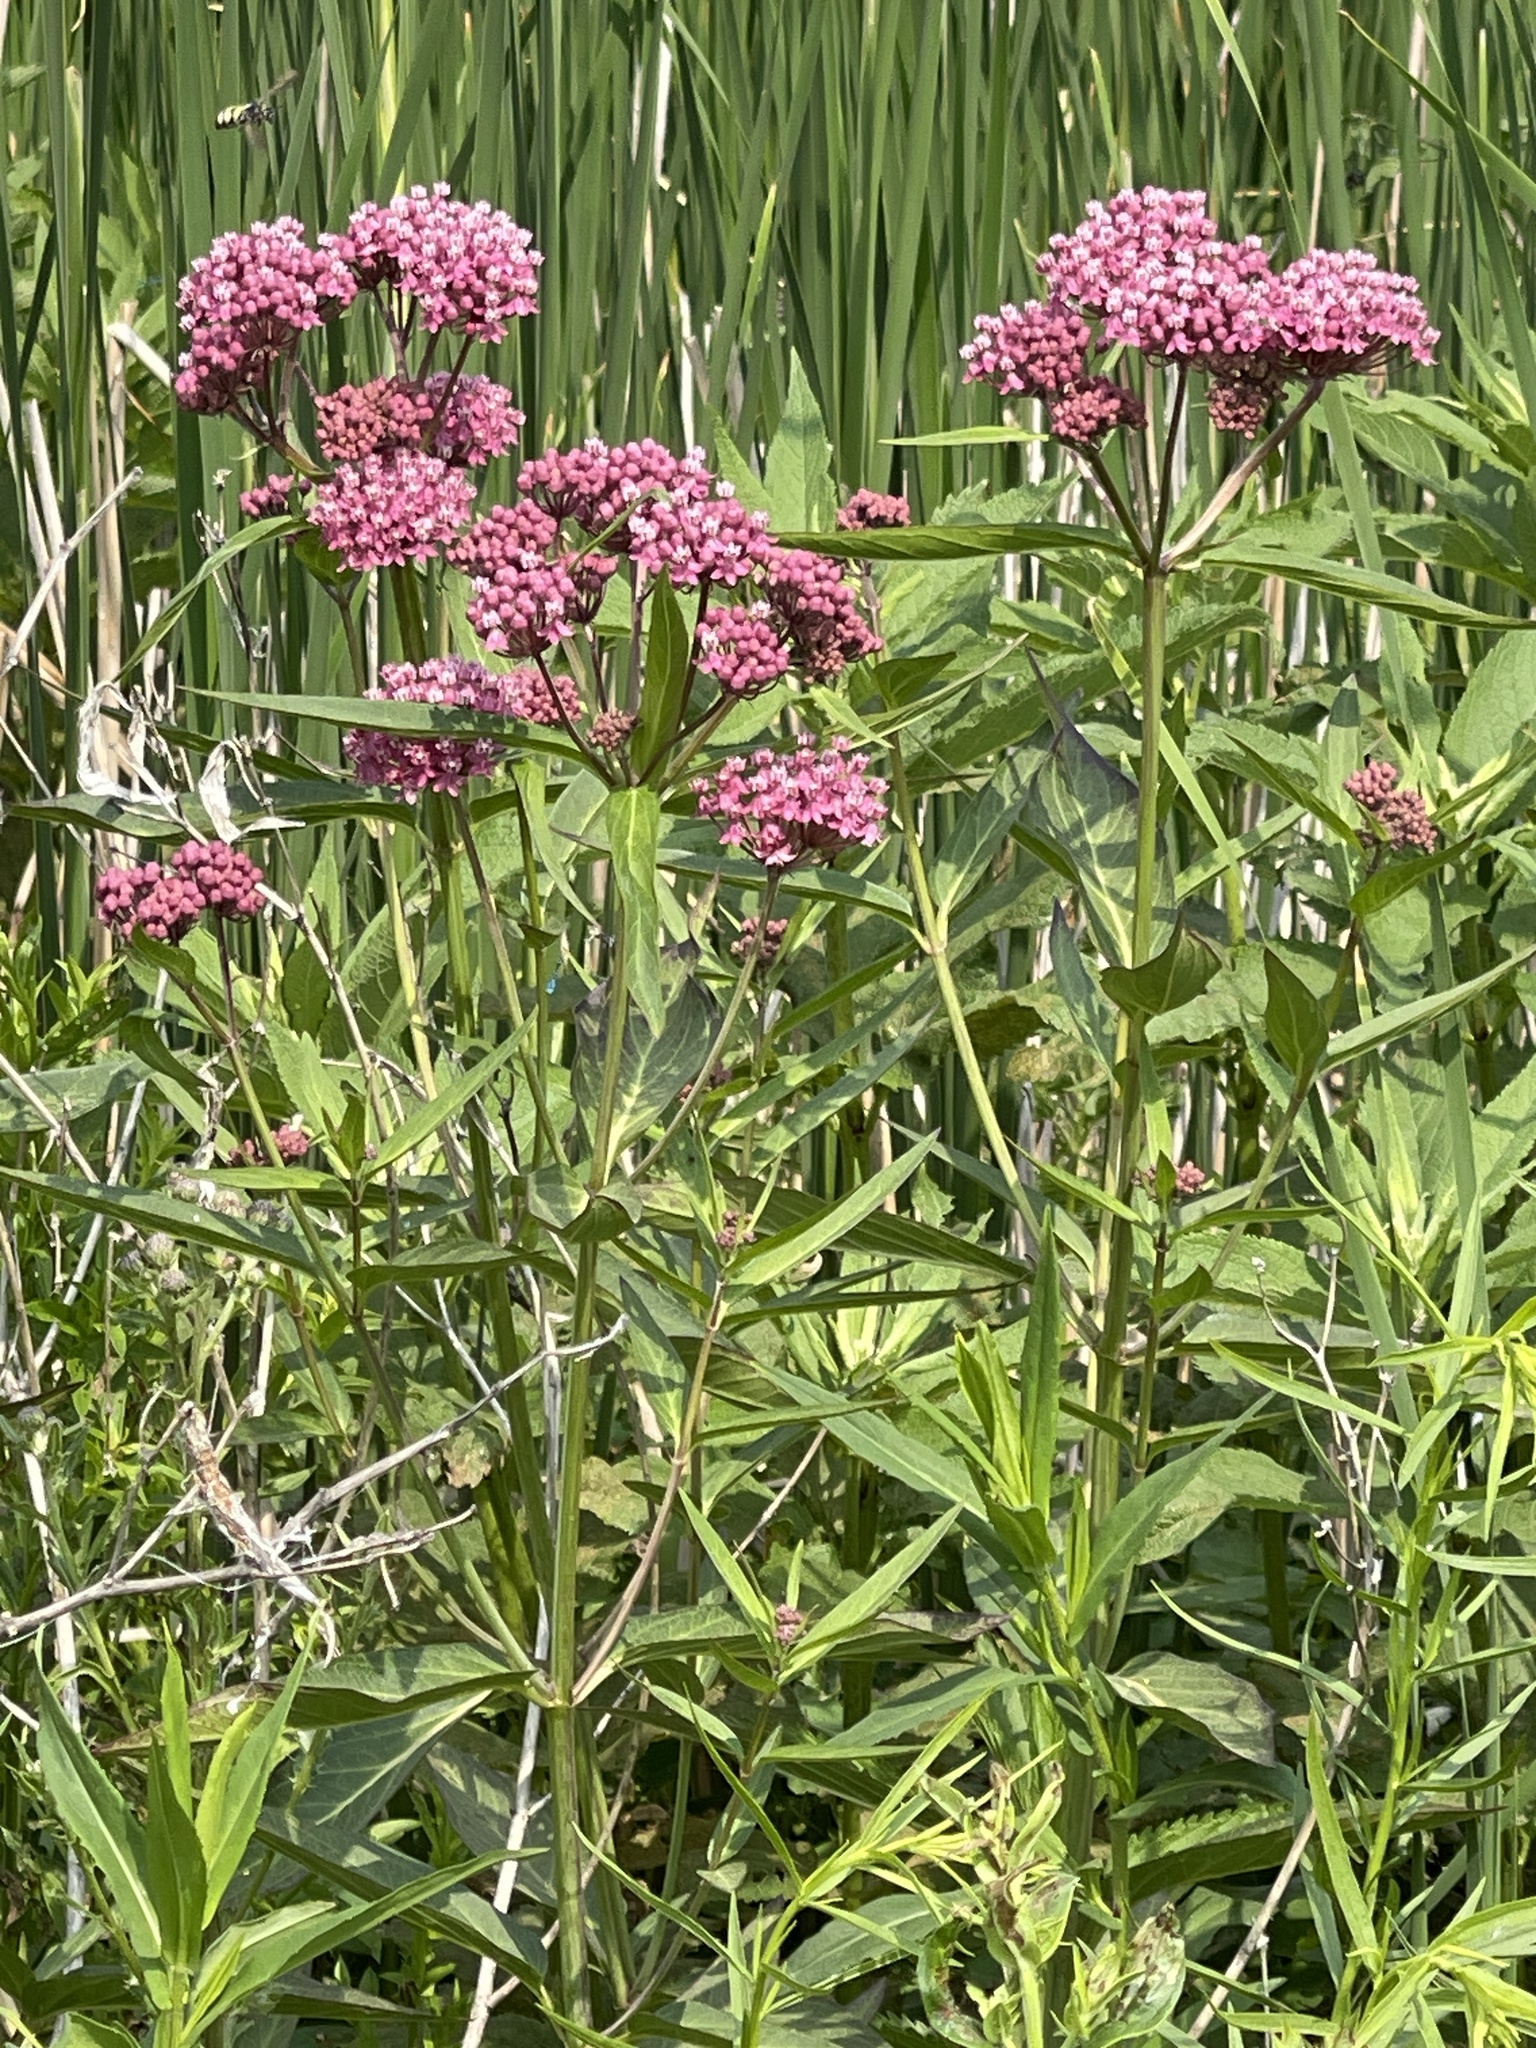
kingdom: Plantae
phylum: Tracheophyta
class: Magnoliopsida
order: Gentianales
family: Apocynaceae
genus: Asclepias
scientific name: Asclepias incarnata
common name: Swamp milkweed
